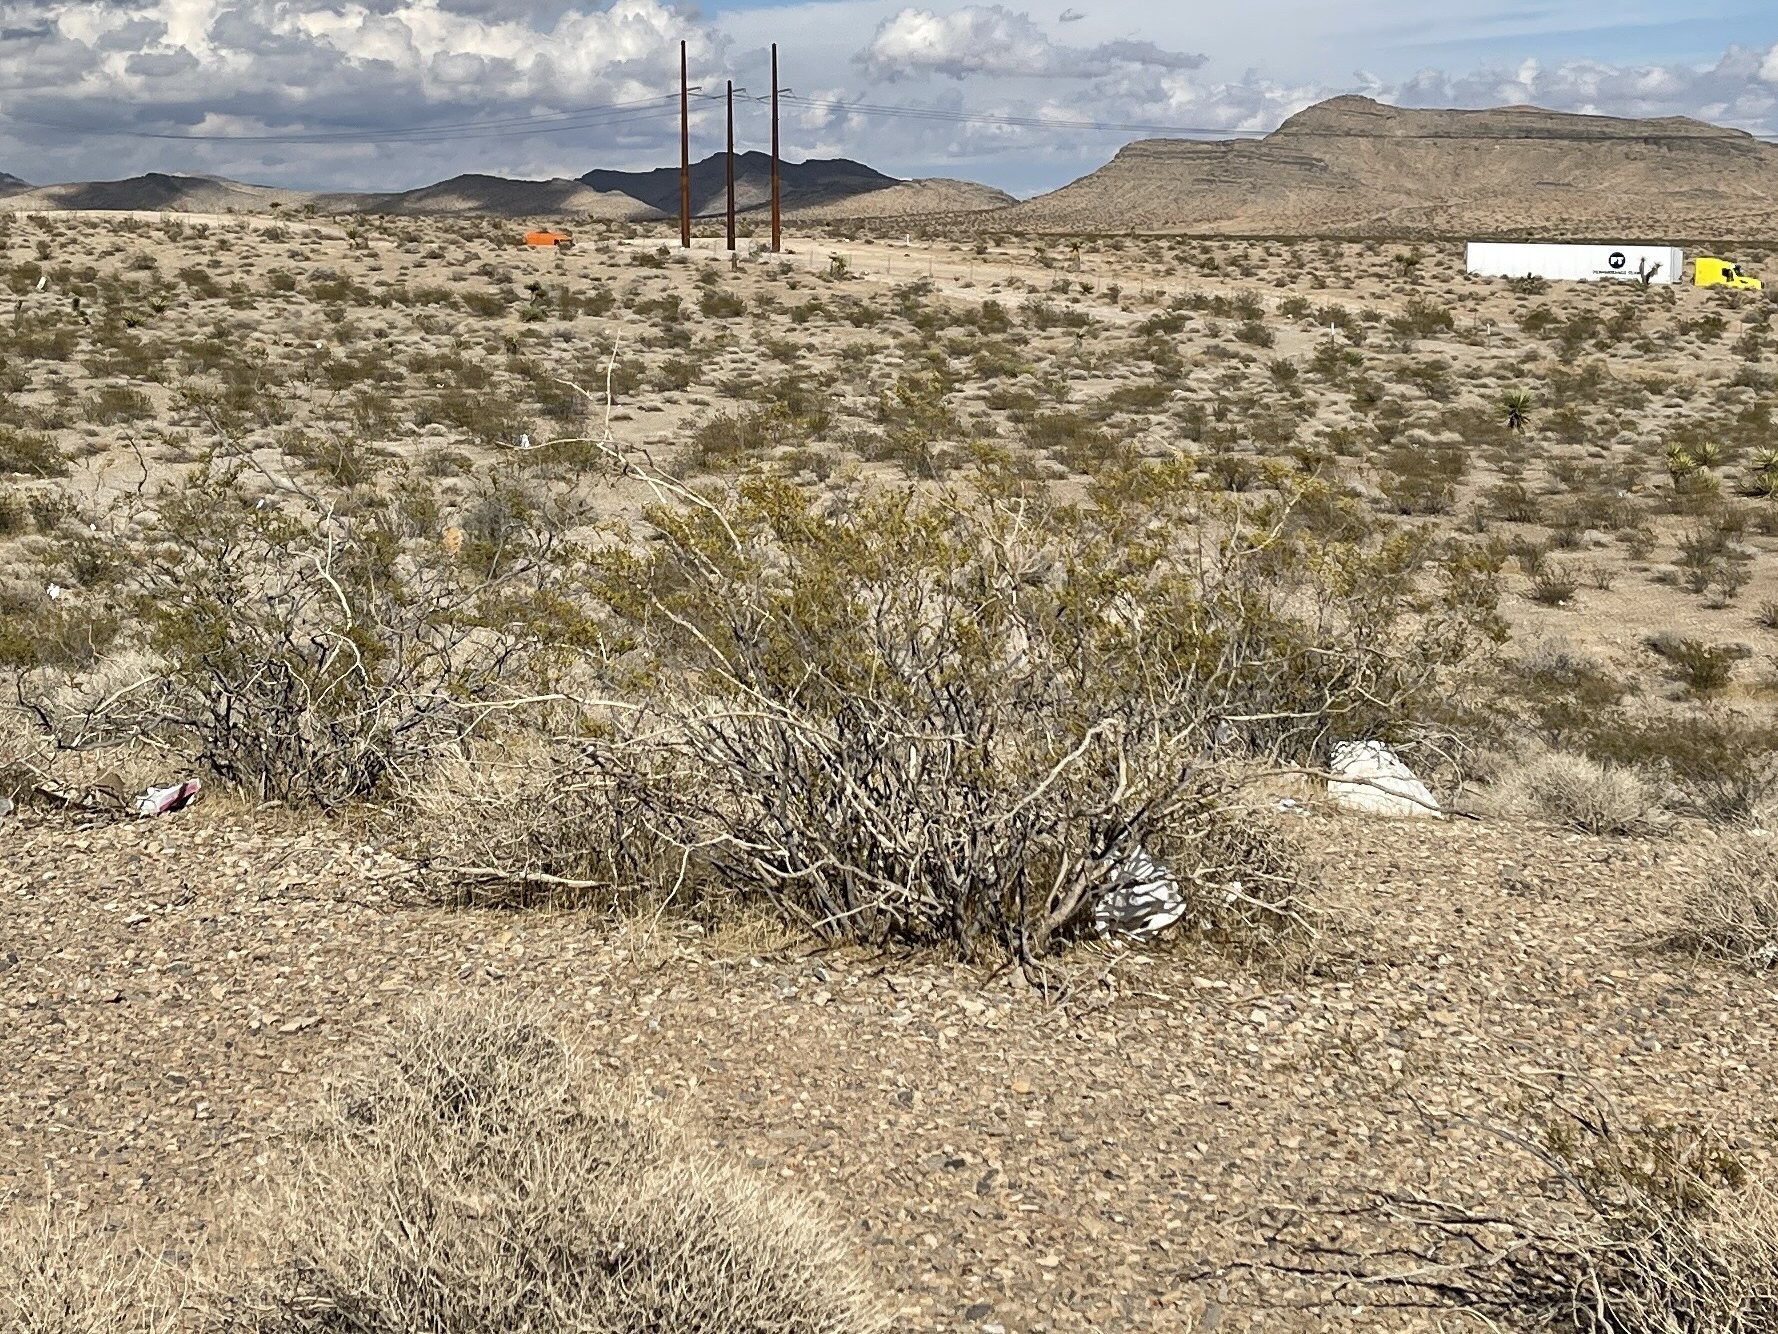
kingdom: Plantae
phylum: Tracheophyta
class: Magnoliopsida
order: Zygophyllales
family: Zygophyllaceae
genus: Larrea
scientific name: Larrea tridentata
